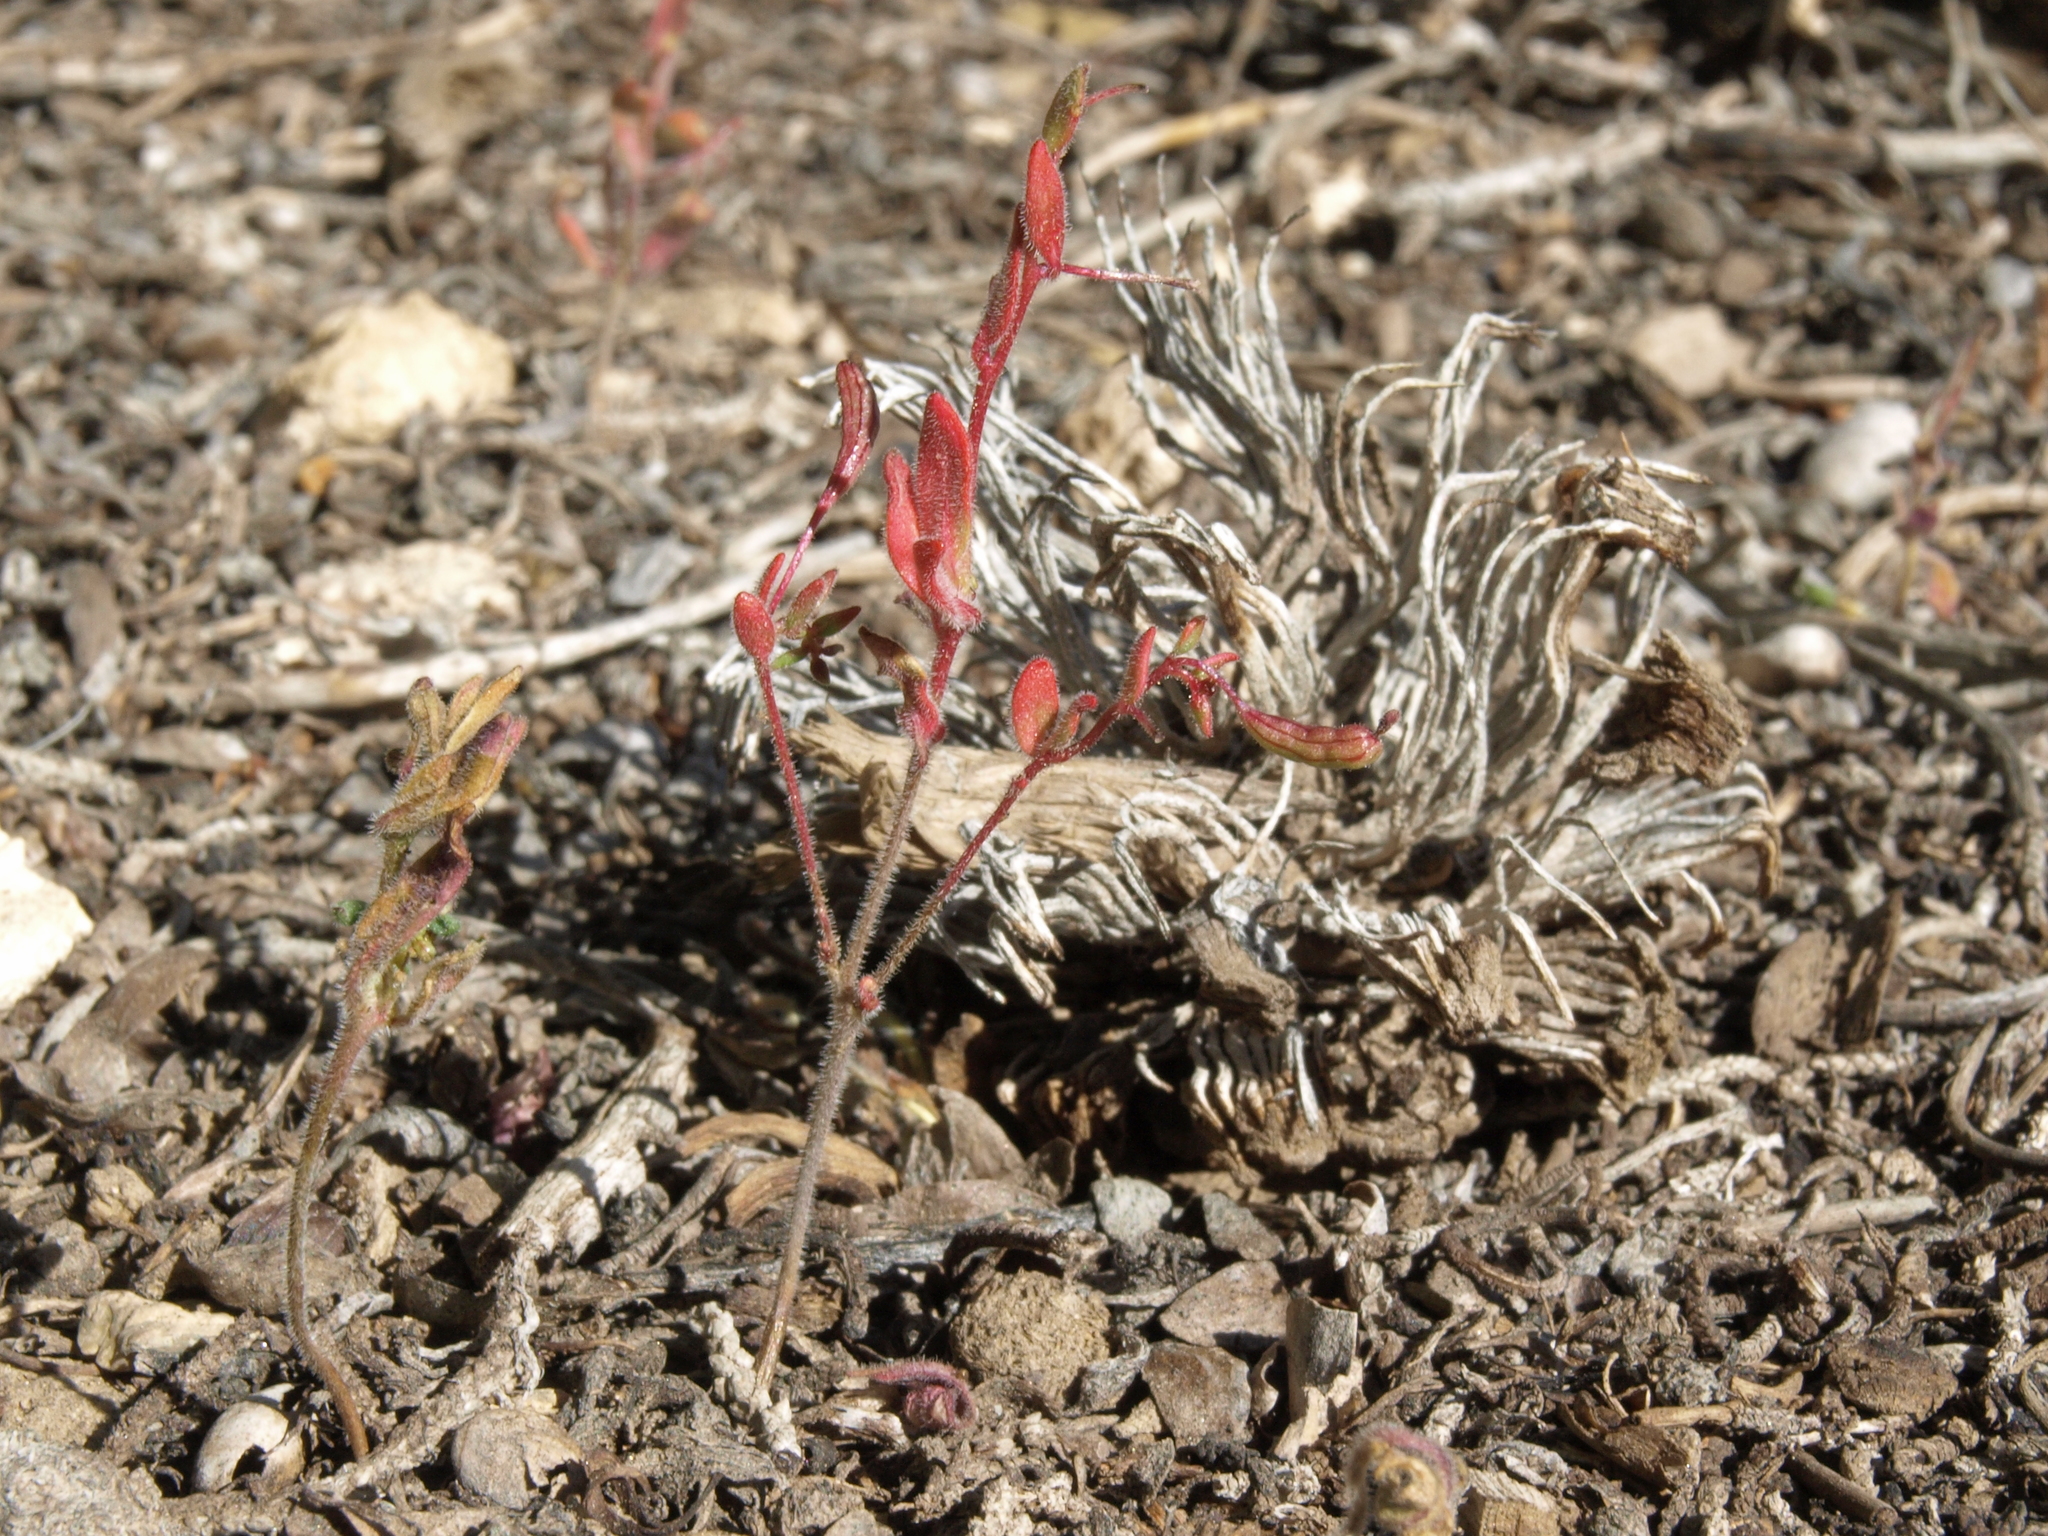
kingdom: Plantae
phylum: Tracheophyta
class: Magnoliopsida
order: Myrtales
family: Onagraceae
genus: Chylismiella
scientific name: Chylismiella pterosperma
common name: Wingfruit suncup
